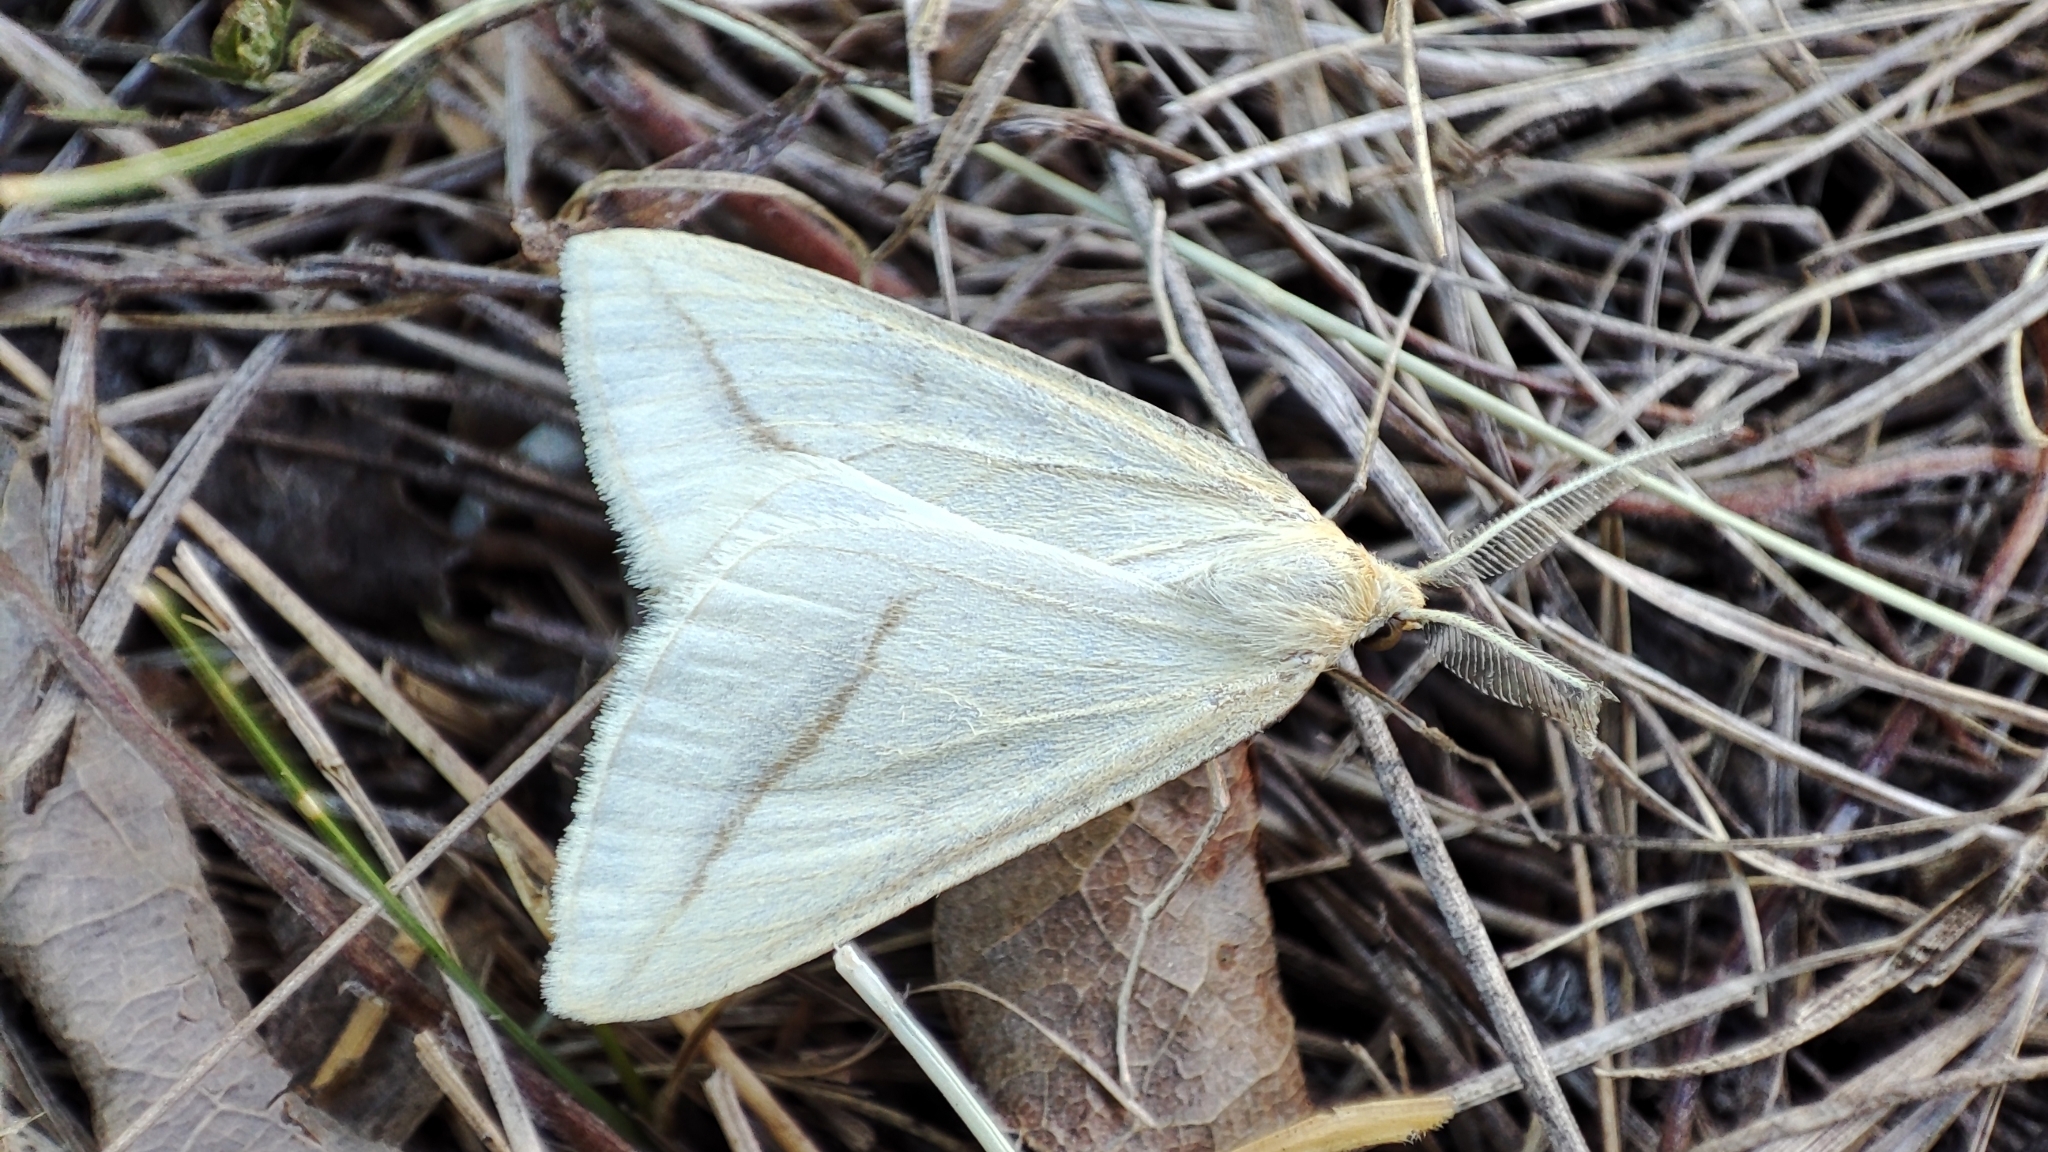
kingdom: Animalia
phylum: Arthropoda
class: Insecta
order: Lepidoptera
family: Geometridae
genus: Aspitates
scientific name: Aspitates gilvaria
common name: Straw belle
